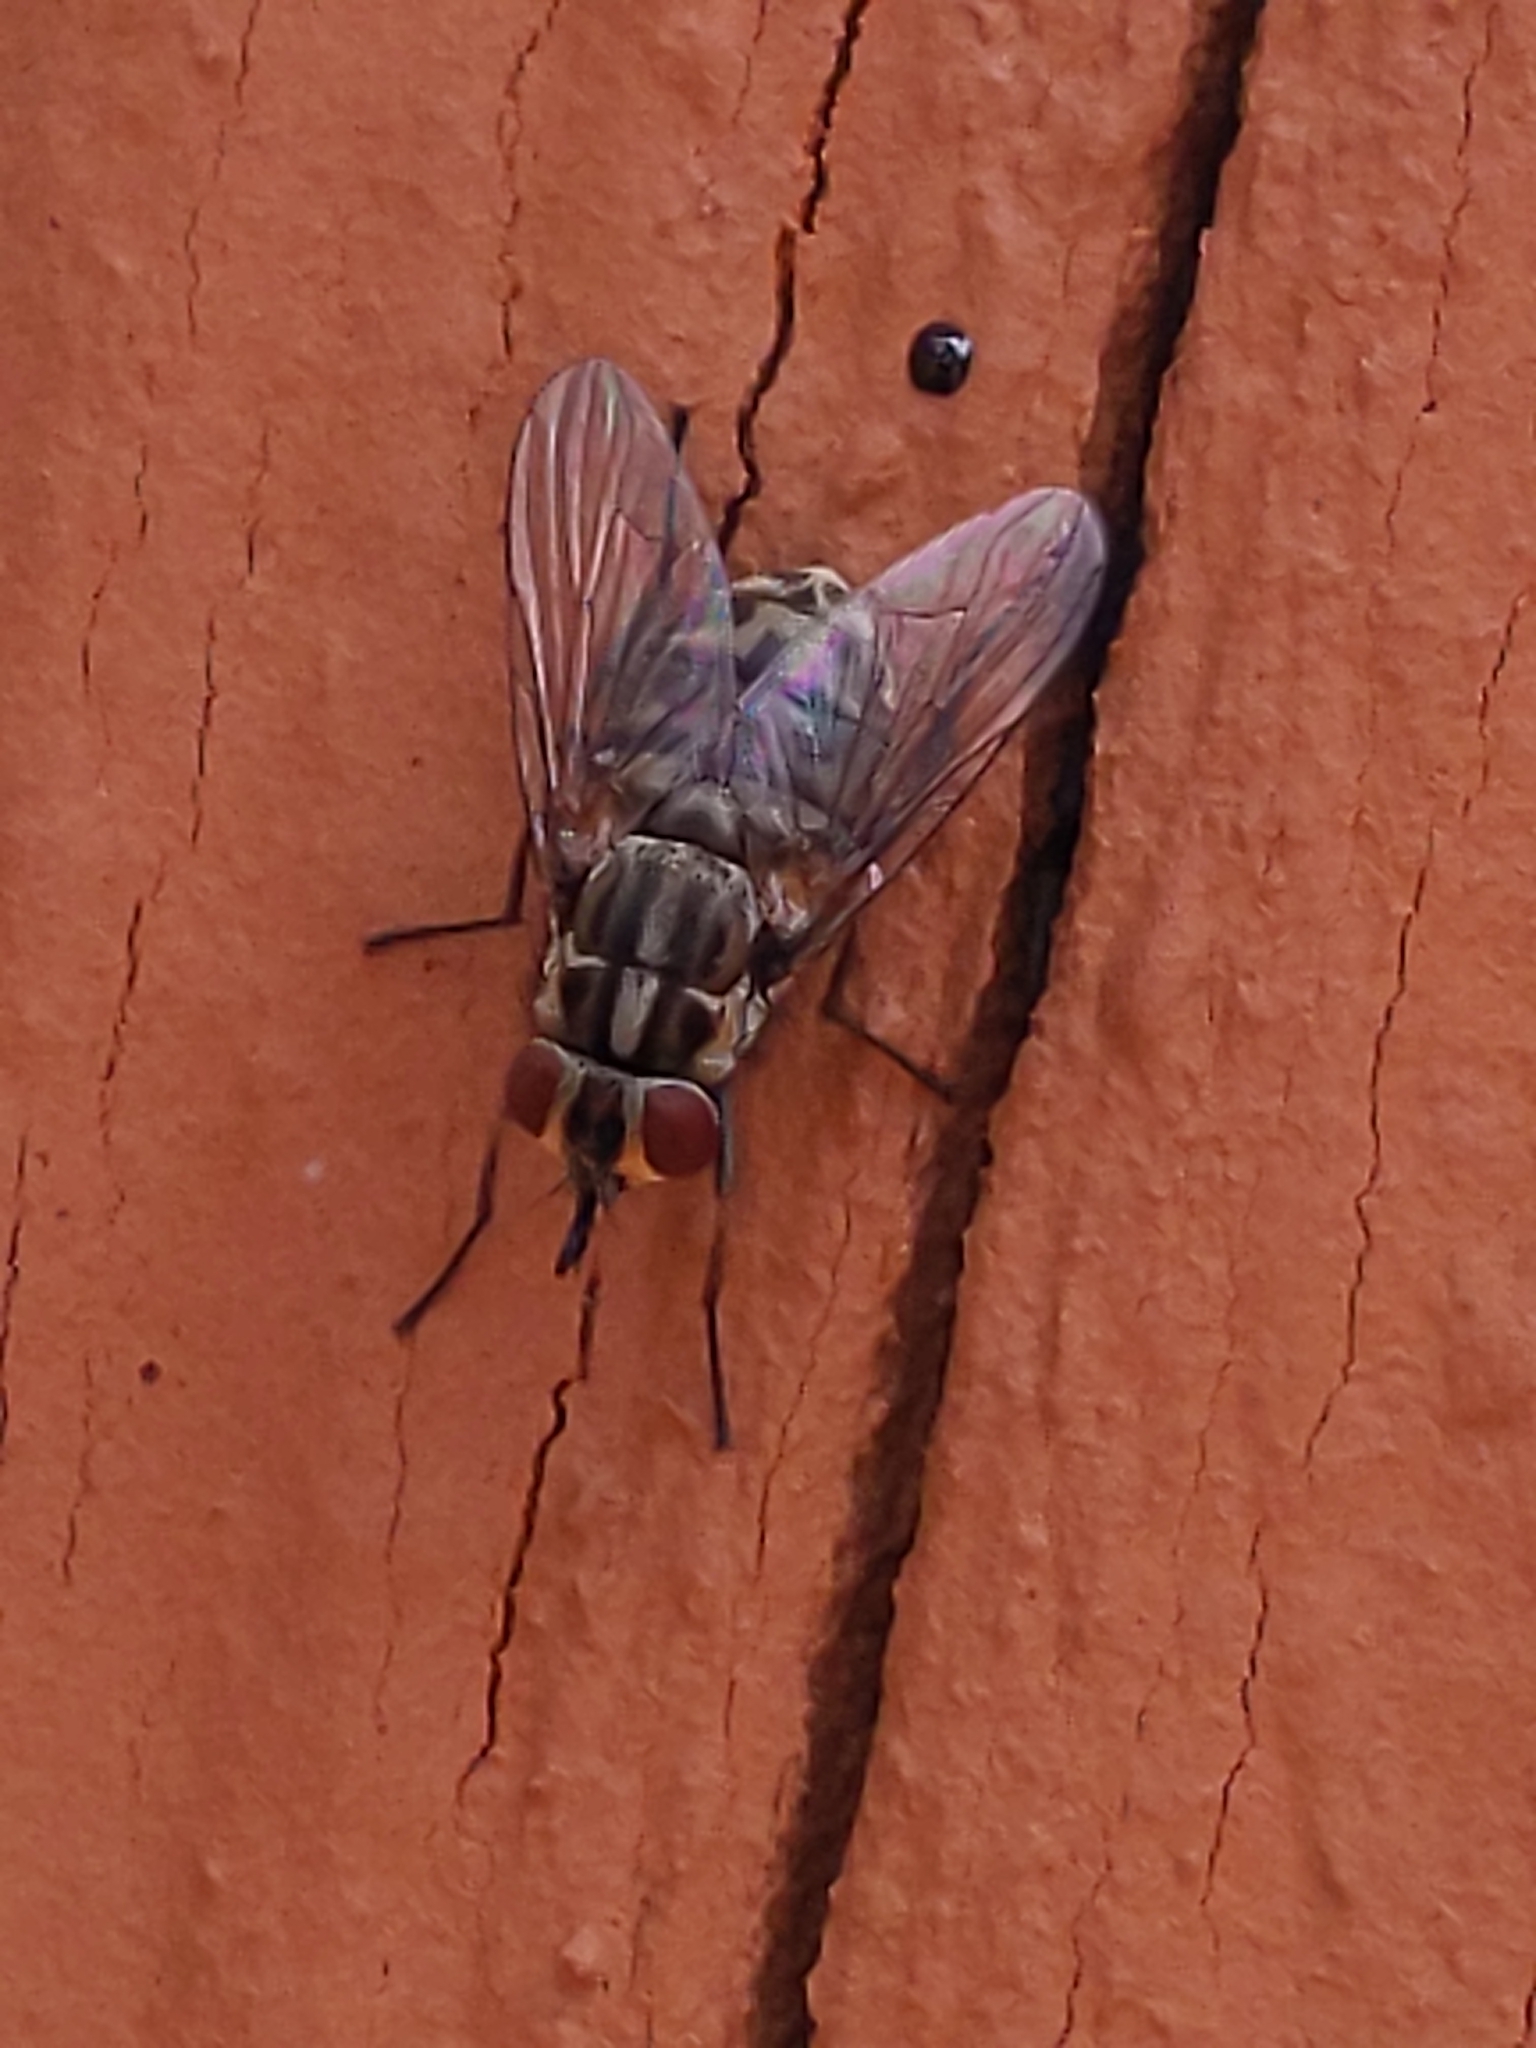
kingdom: Animalia
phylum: Arthropoda
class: Insecta
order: Diptera
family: Muscidae
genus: Stomoxys
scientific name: Stomoxys calcitrans
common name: Stable fly
